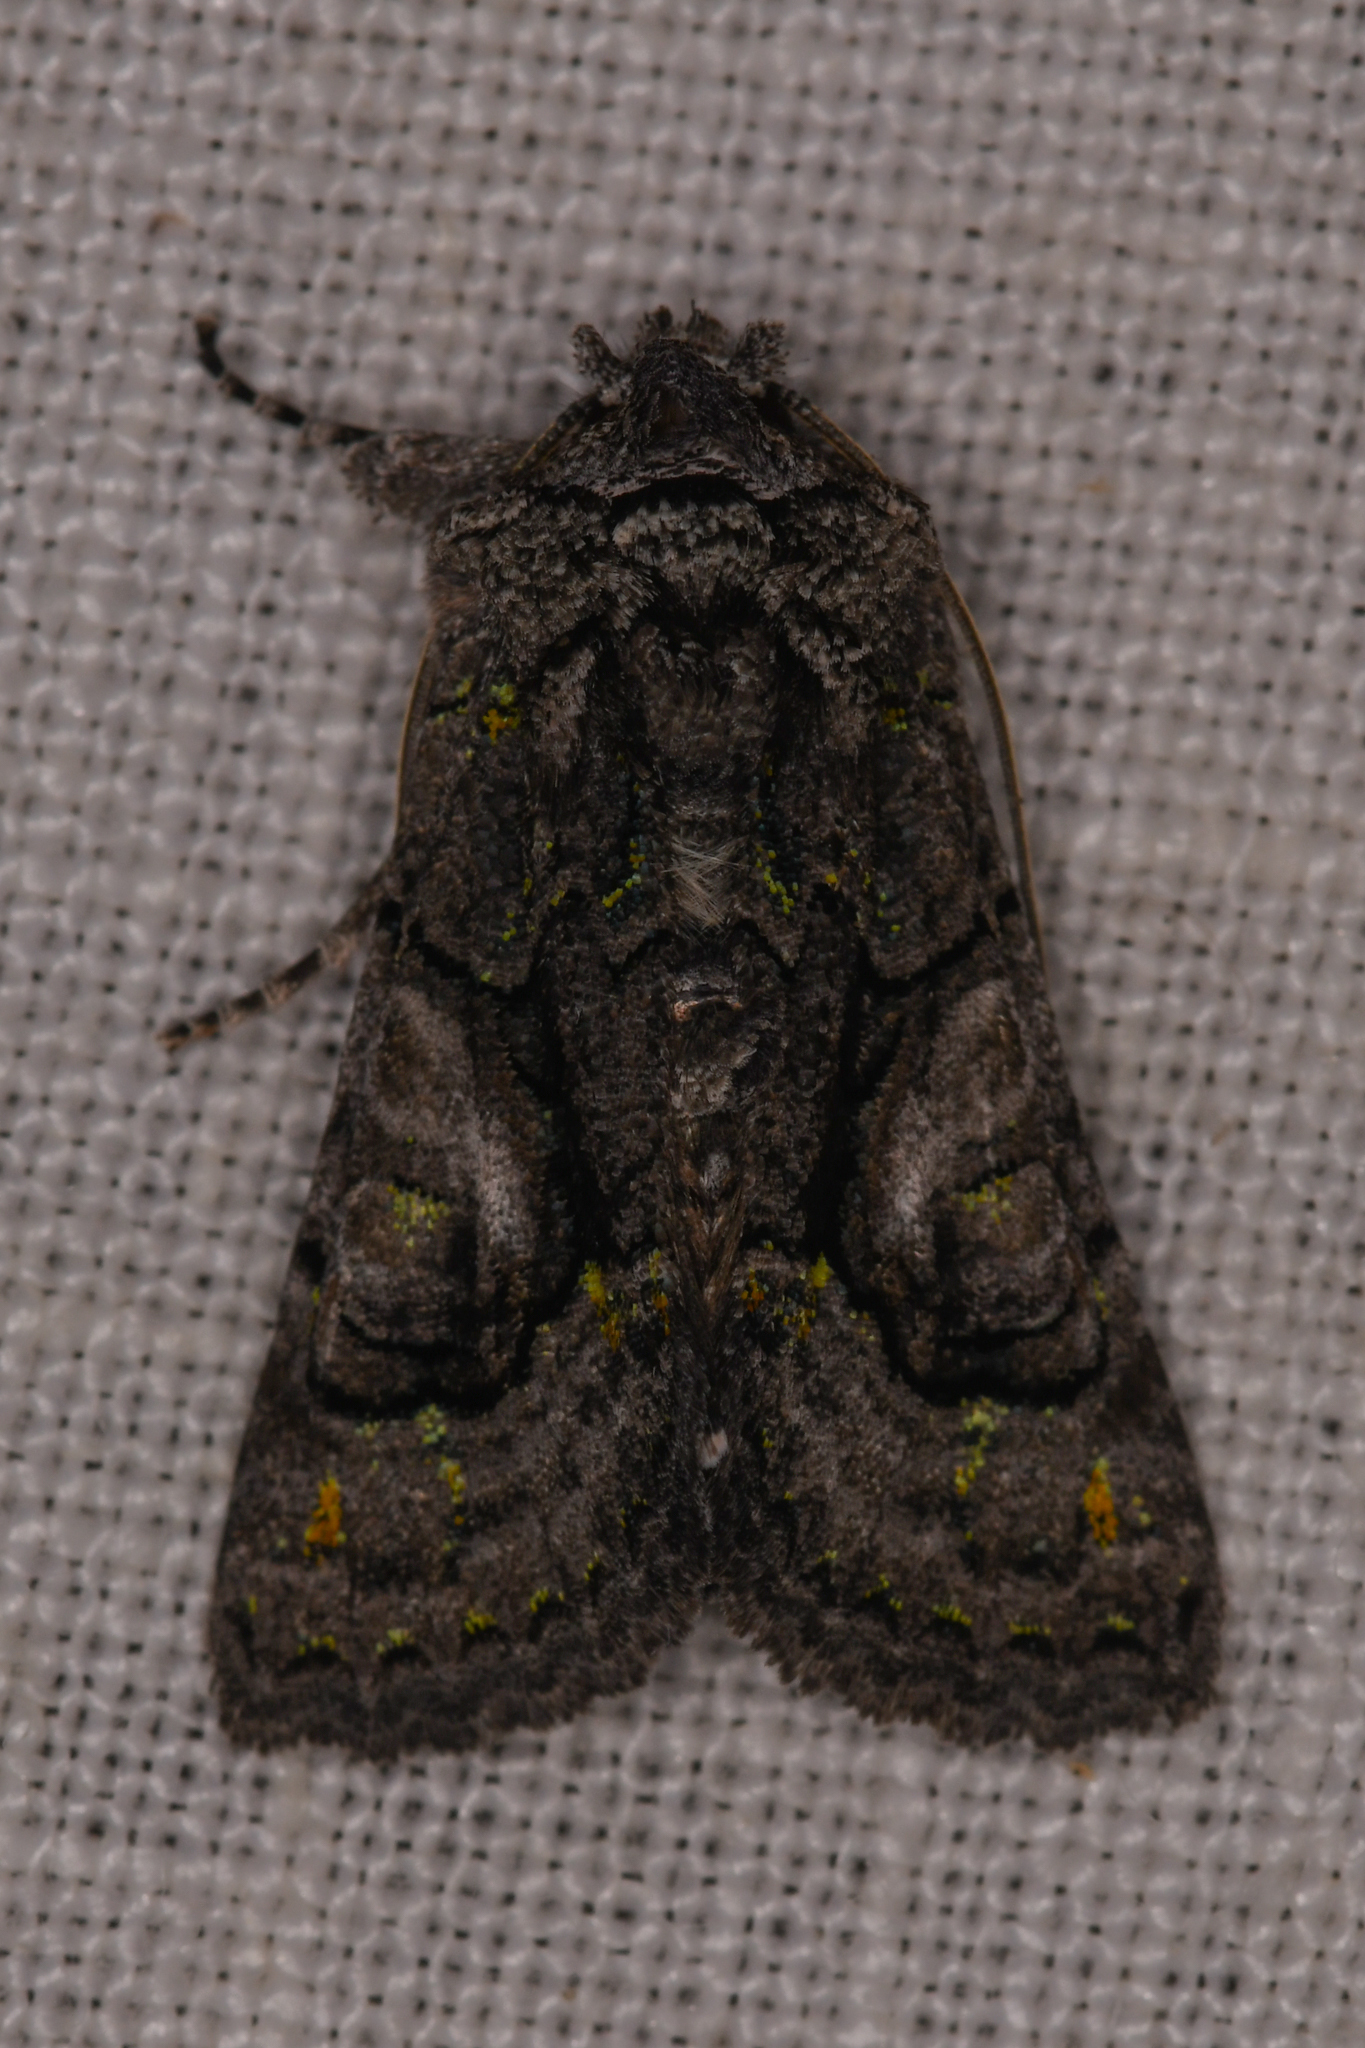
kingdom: Animalia
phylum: Arthropoda
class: Insecta
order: Lepidoptera
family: Noctuidae
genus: Behrensia
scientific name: Behrensia conchiformis
